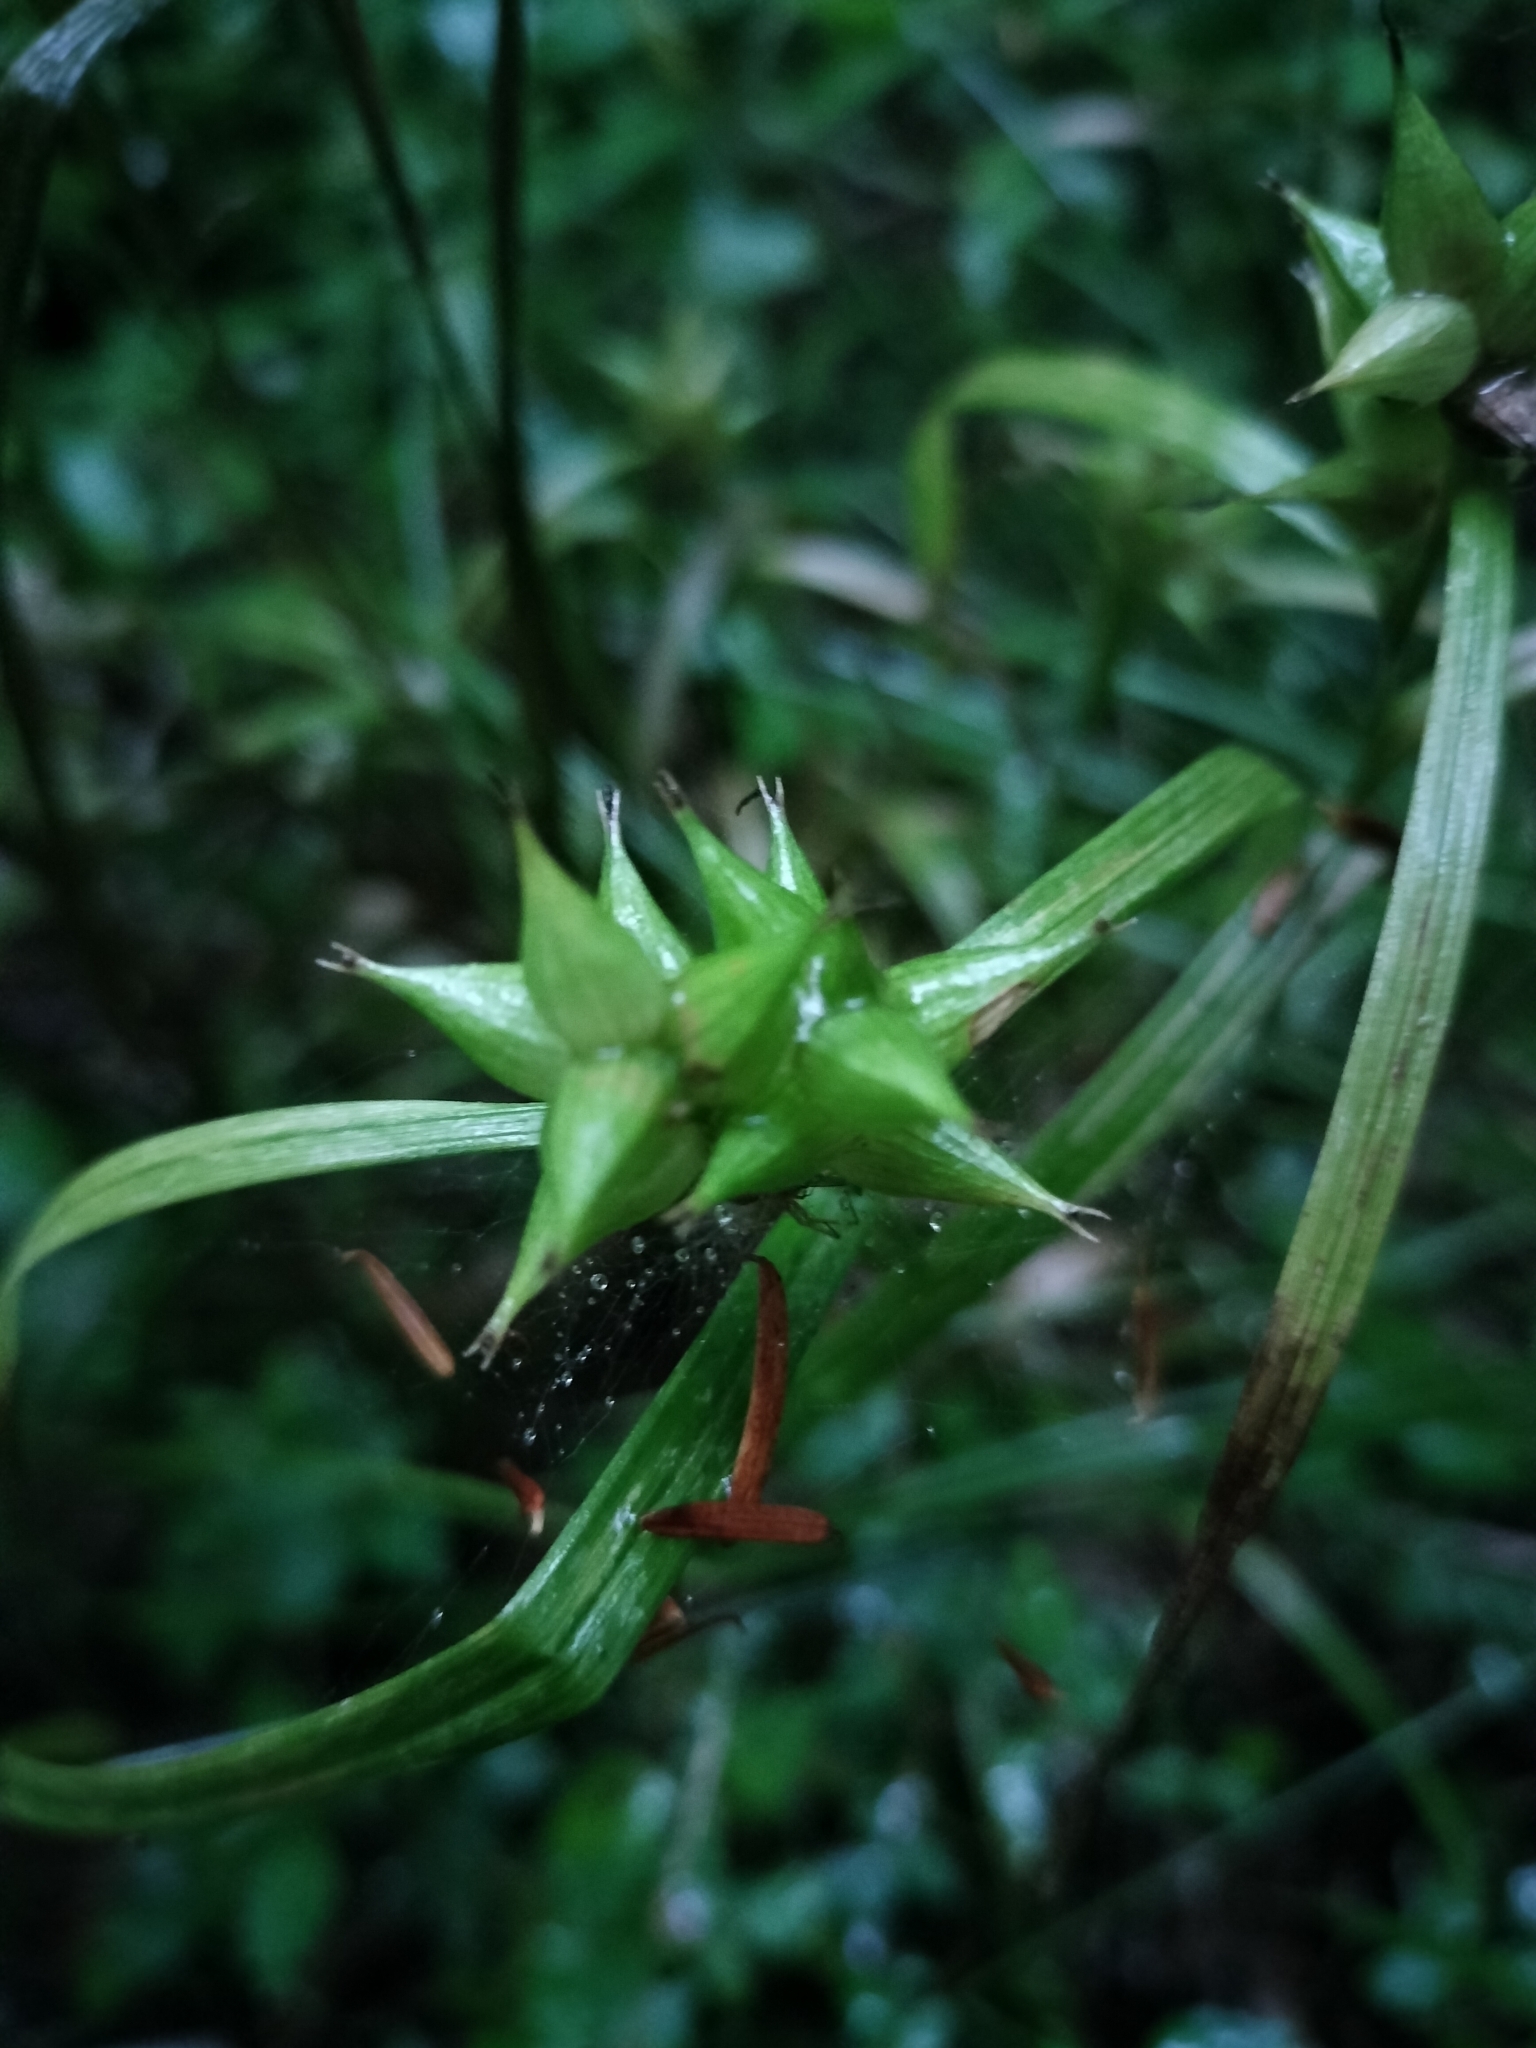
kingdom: Plantae
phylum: Tracheophyta
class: Liliopsida
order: Poales
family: Cyperaceae
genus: Carex
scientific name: Carex intumescens
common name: Greater bladder sedge
